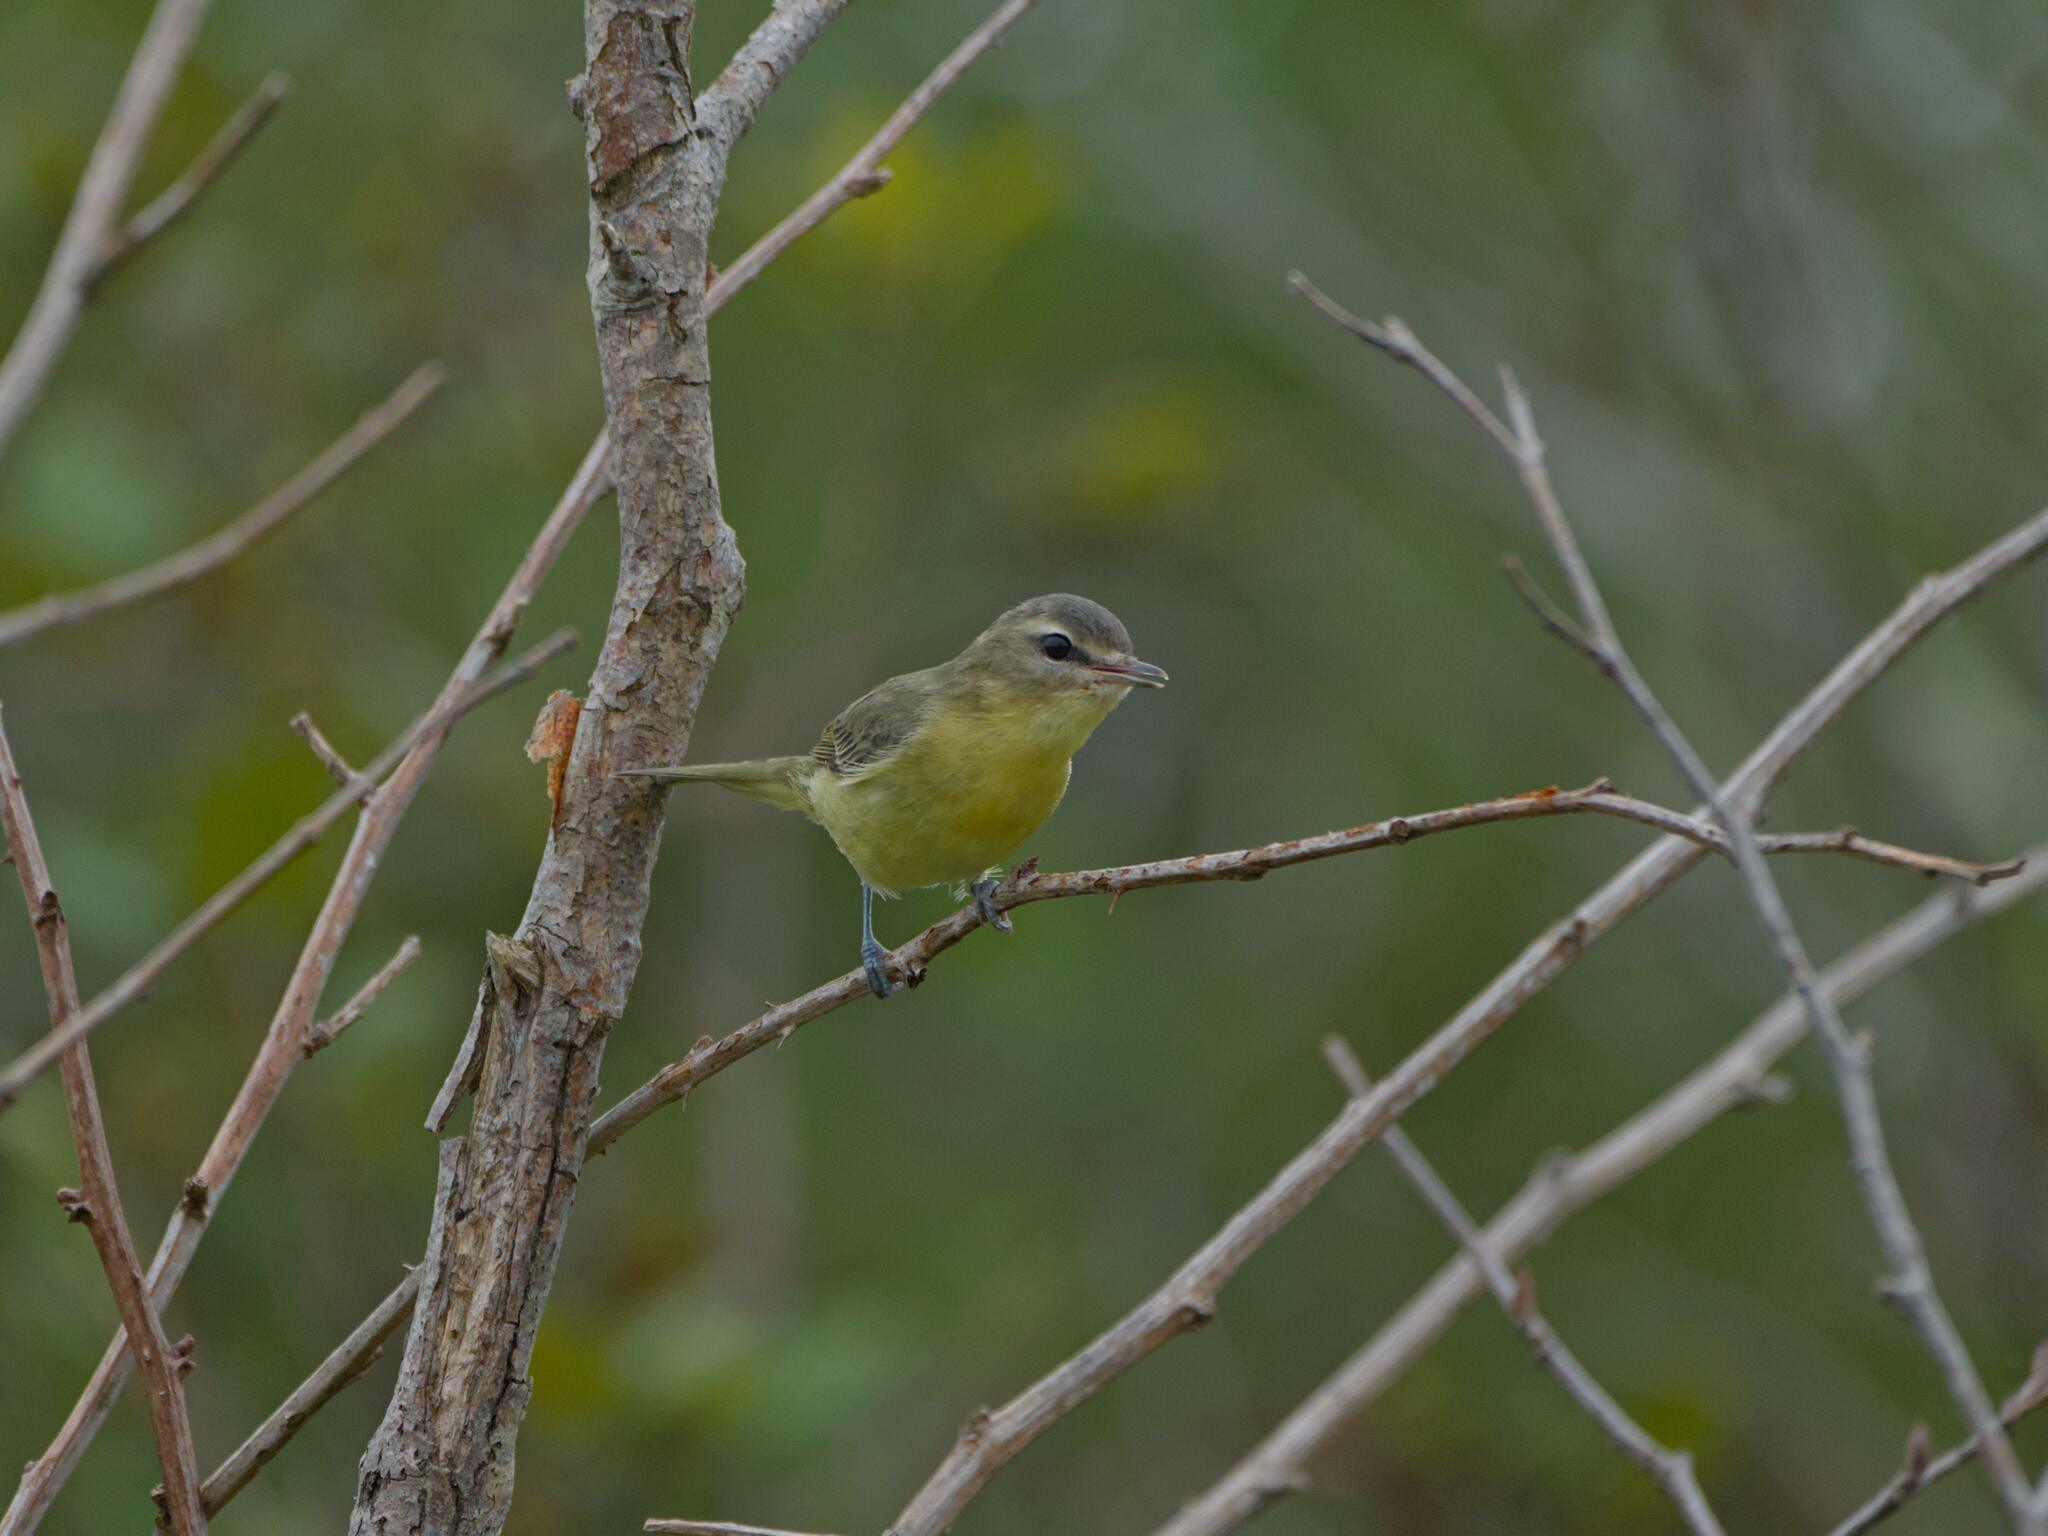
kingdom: Animalia
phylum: Chordata
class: Aves
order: Passeriformes
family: Vireonidae
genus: Vireo
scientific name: Vireo philadelphicus
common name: Philadelphia vireo
